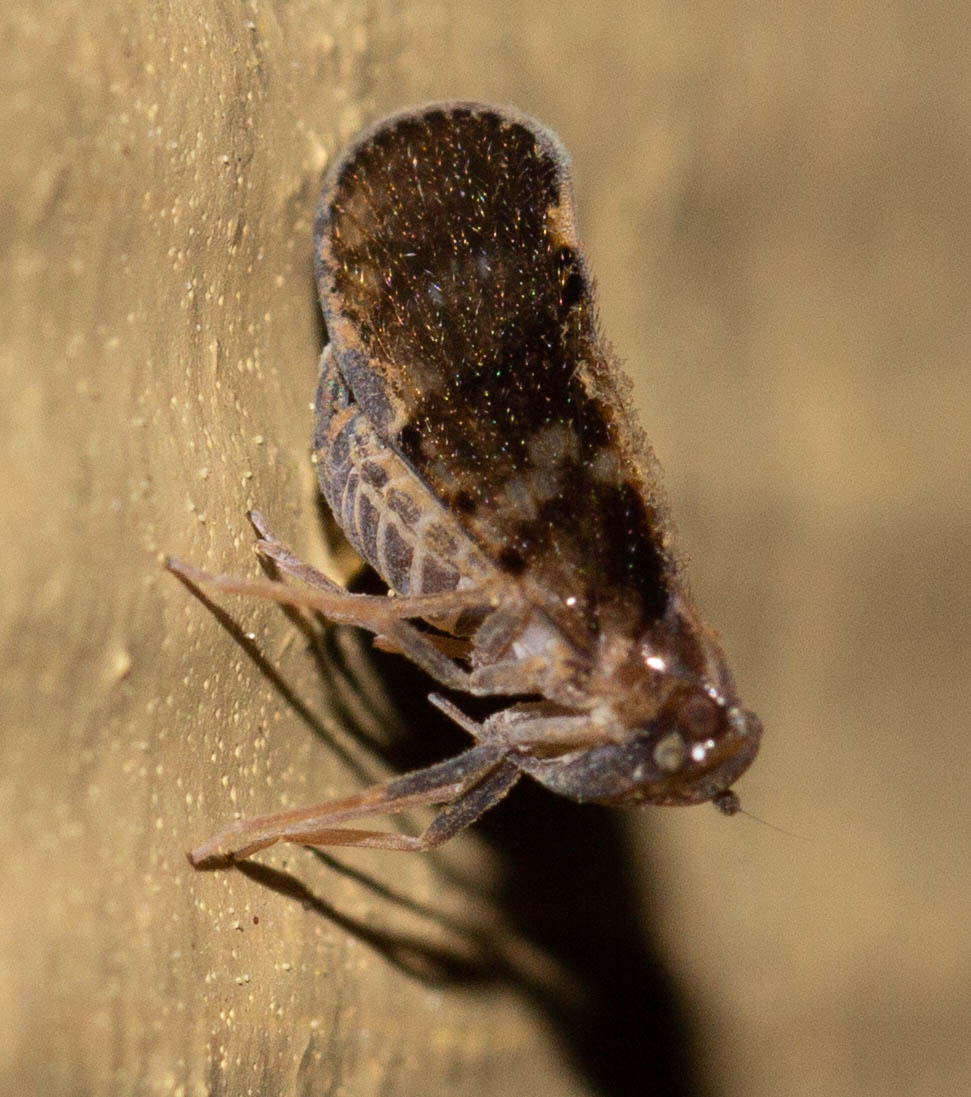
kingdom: Animalia
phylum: Arthropoda
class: Insecta
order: Hemiptera
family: Cixiidae
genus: Pintalia
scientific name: Pintalia vibex
